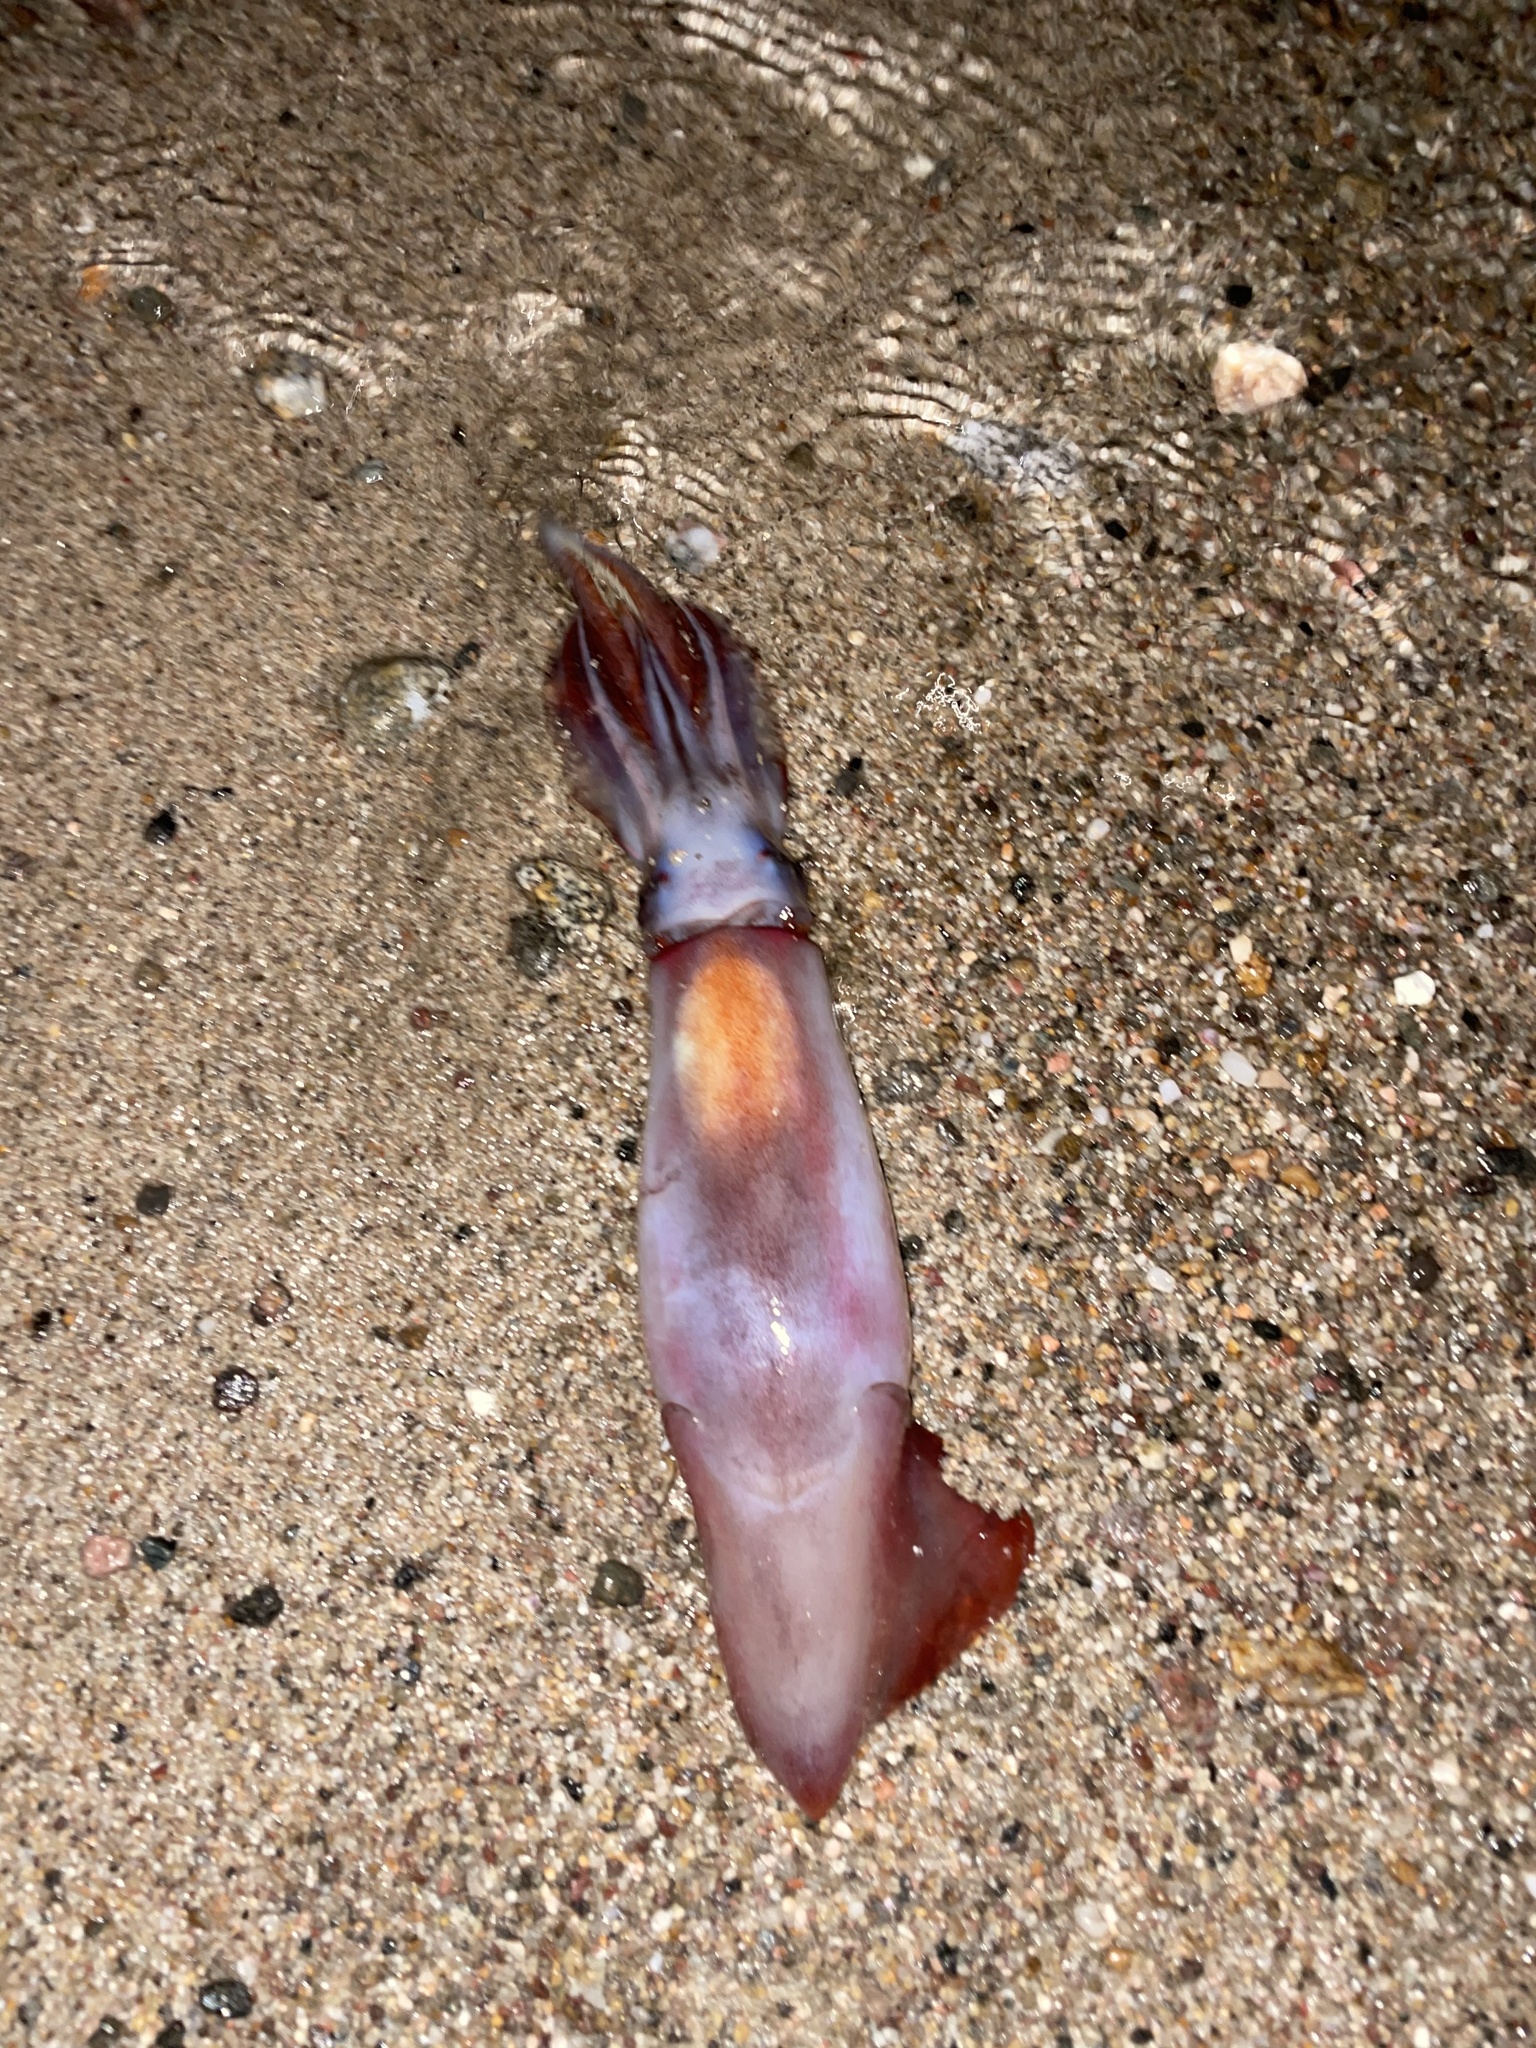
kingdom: Animalia
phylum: Mollusca
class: Cephalopoda
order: Oegopsida
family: Ommastrephidae
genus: Dosidicus
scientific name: Dosidicus gigas
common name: Humboldt squid
